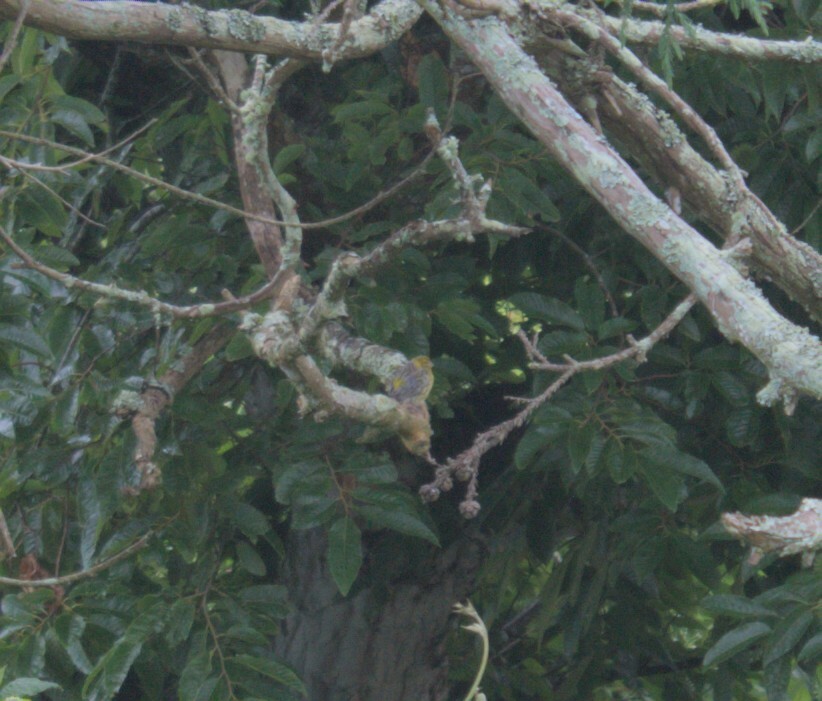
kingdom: Animalia
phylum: Chordata
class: Aves
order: Passeriformes
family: Fringillidae
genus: Serinus
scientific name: Serinus canaria
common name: Atlantic canary
